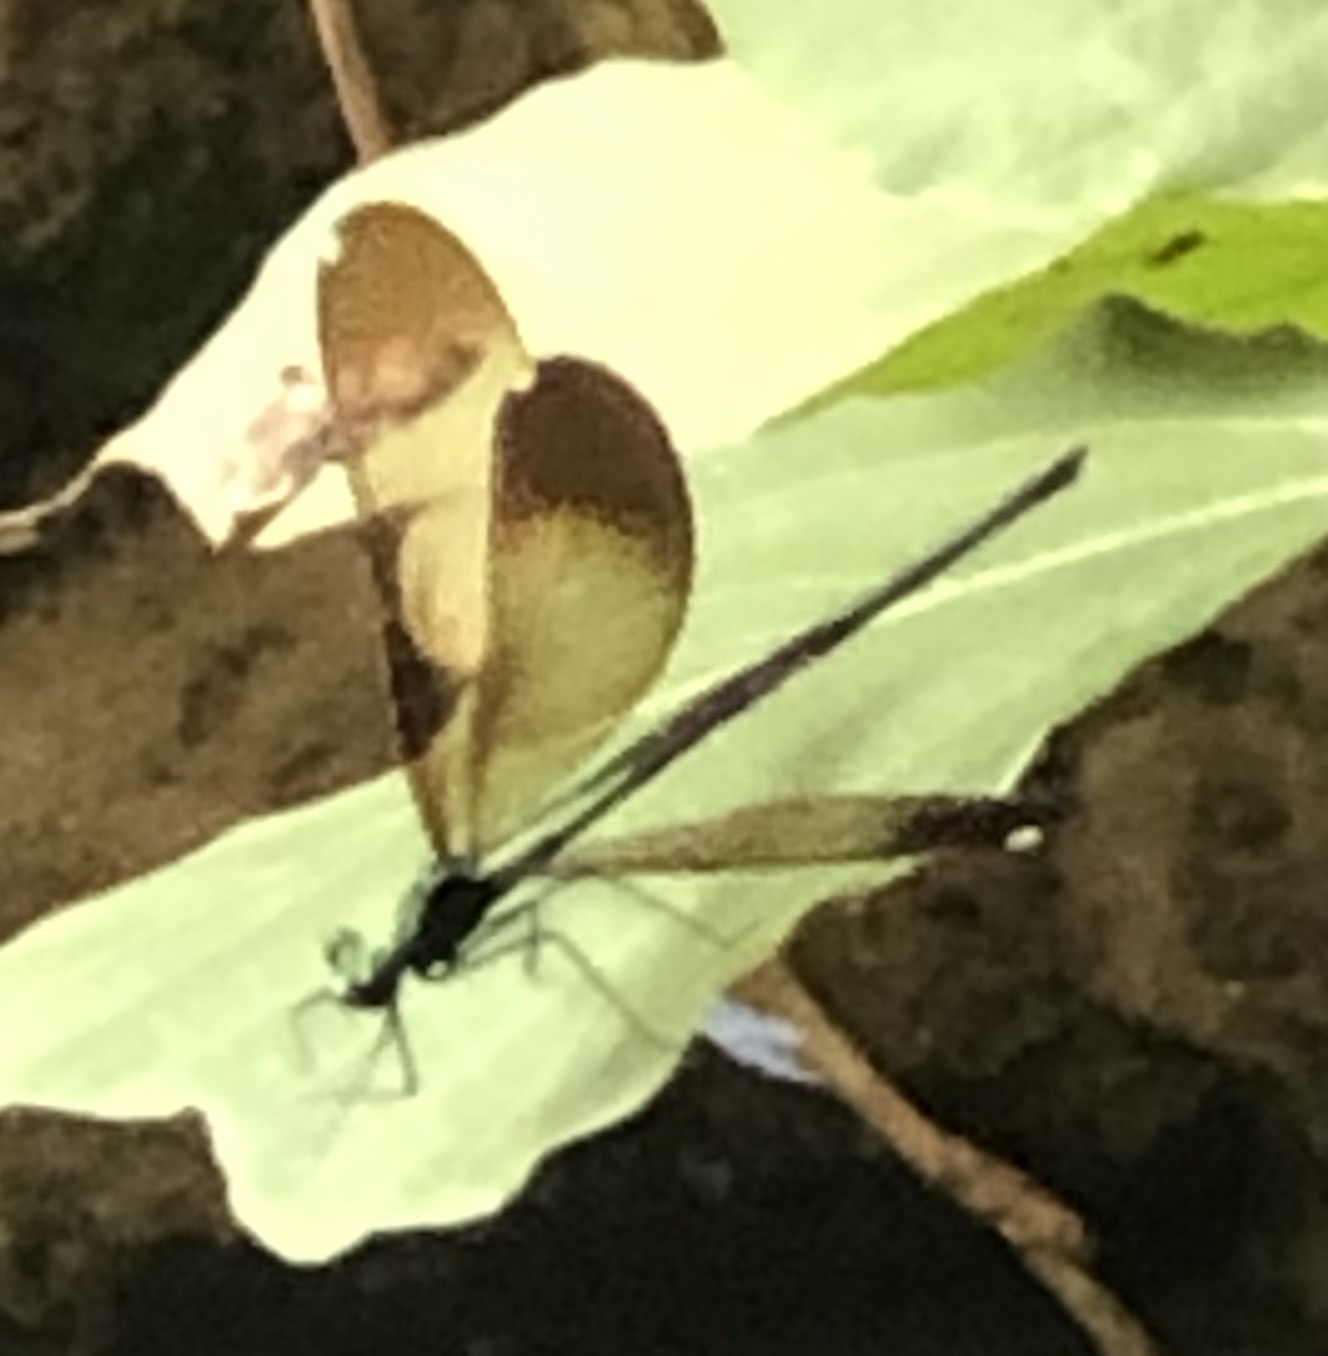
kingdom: Animalia
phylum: Arthropoda
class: Insecta
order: Odonata
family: Calopterygidae
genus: Calopteryx
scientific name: Calopteryx maculata
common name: Ebony jewelwing
